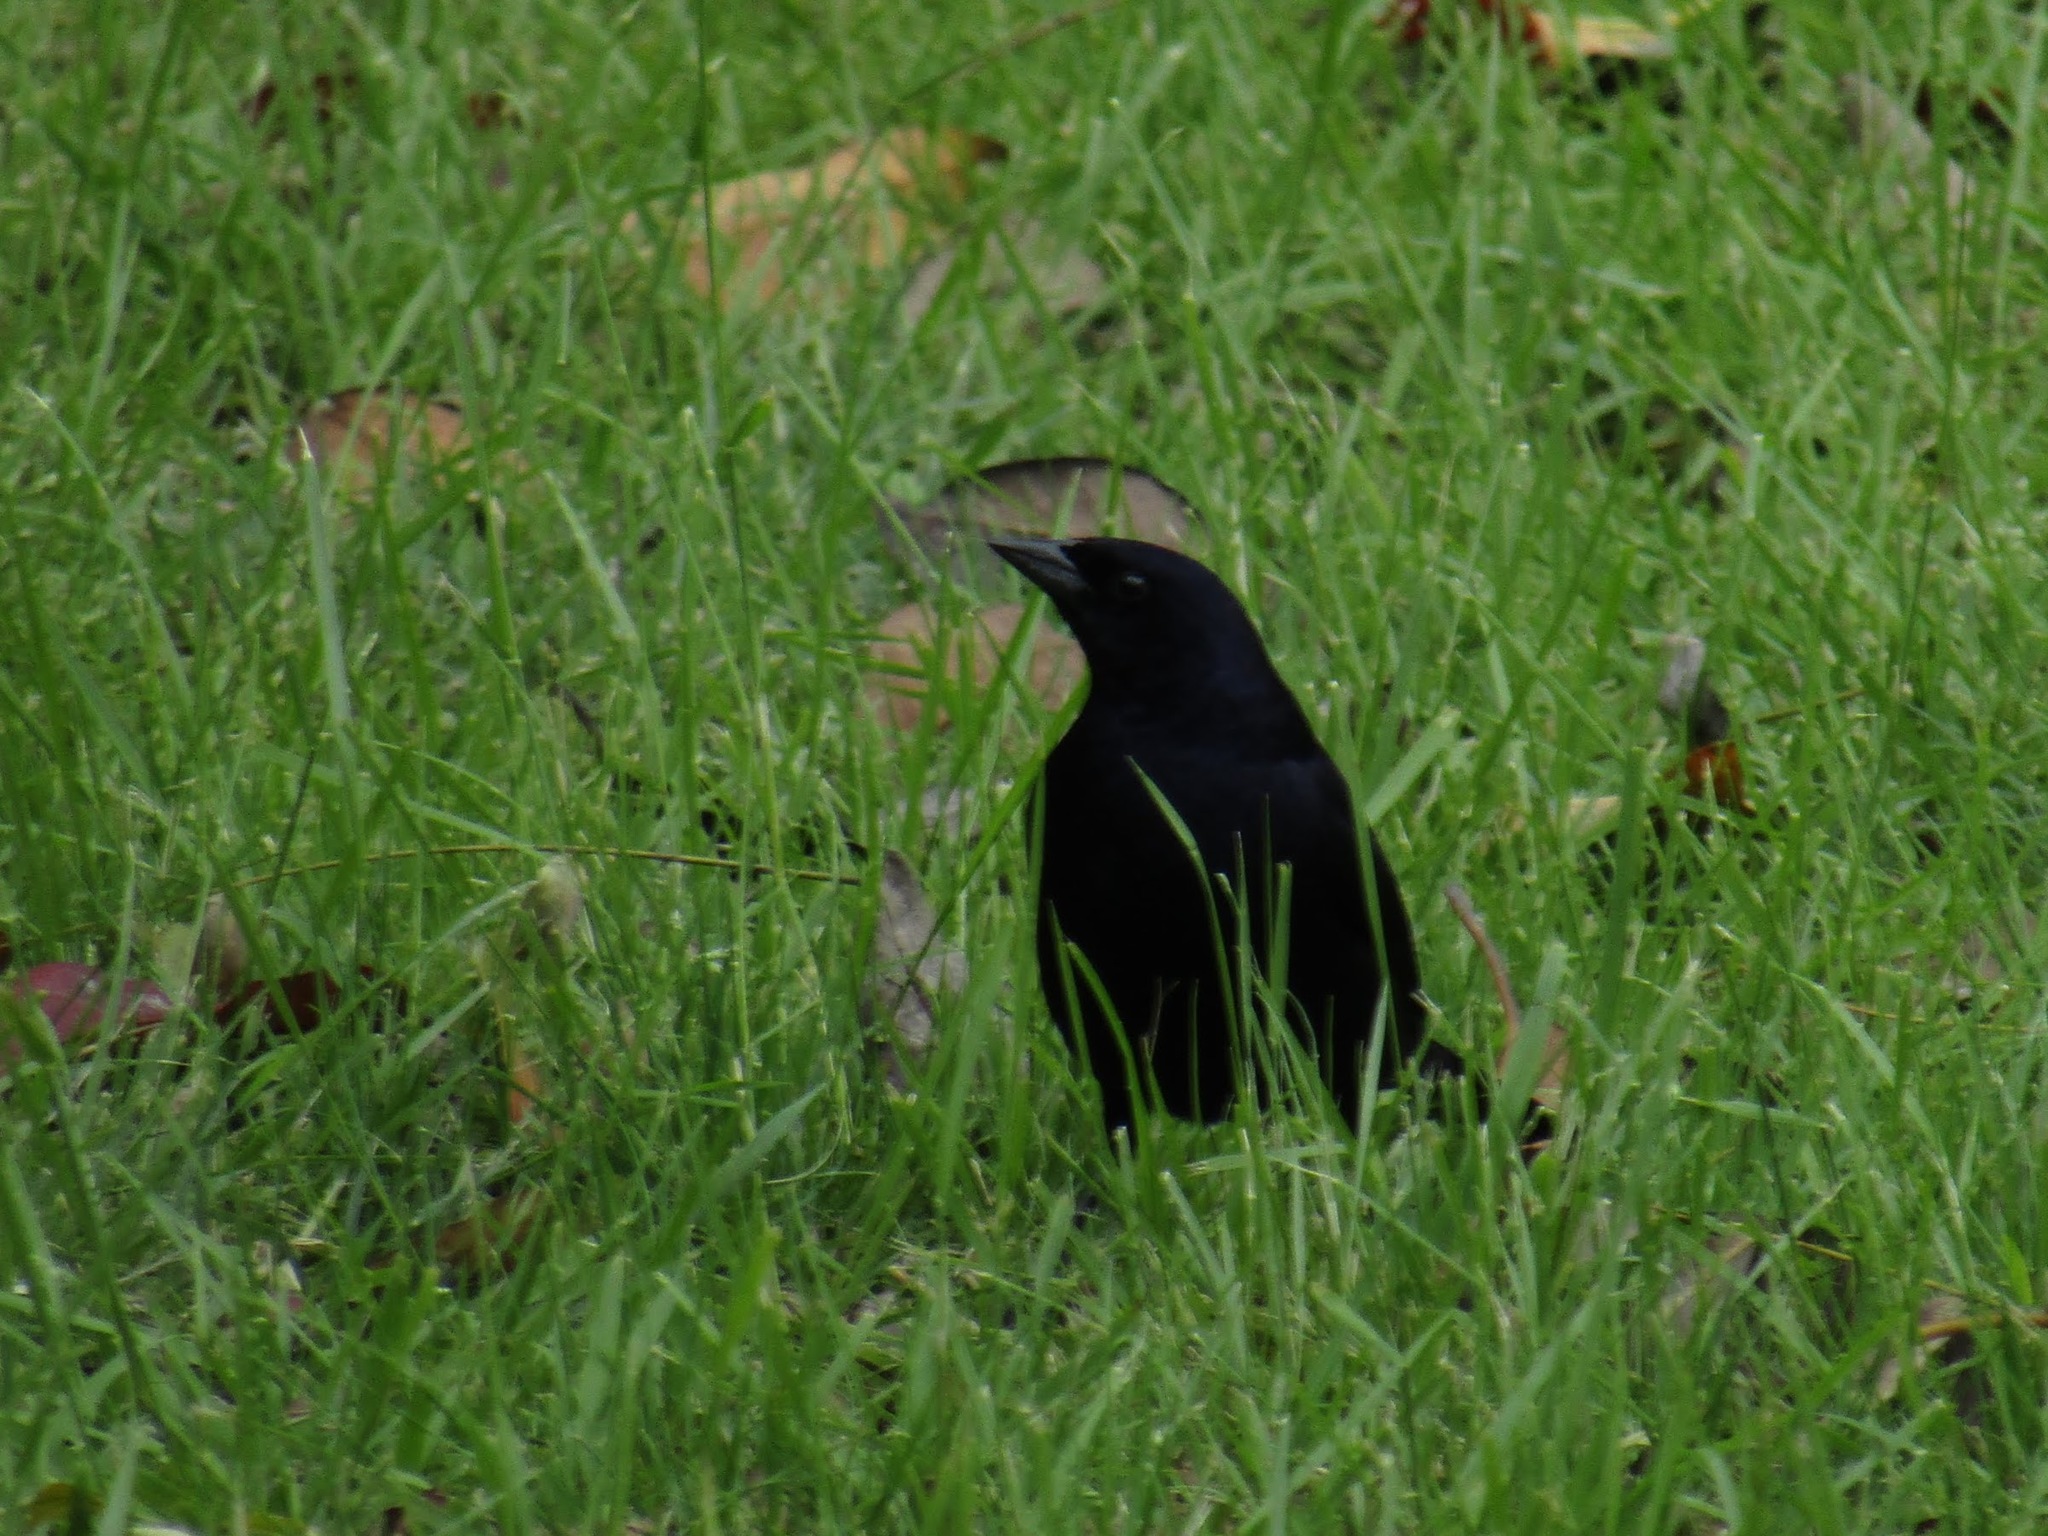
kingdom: Animalia
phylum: Chordata
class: Aves
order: Passeriformes
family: Icteridae
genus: Molothrus
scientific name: Molothrus bonariensis
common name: Shiny cowbird
